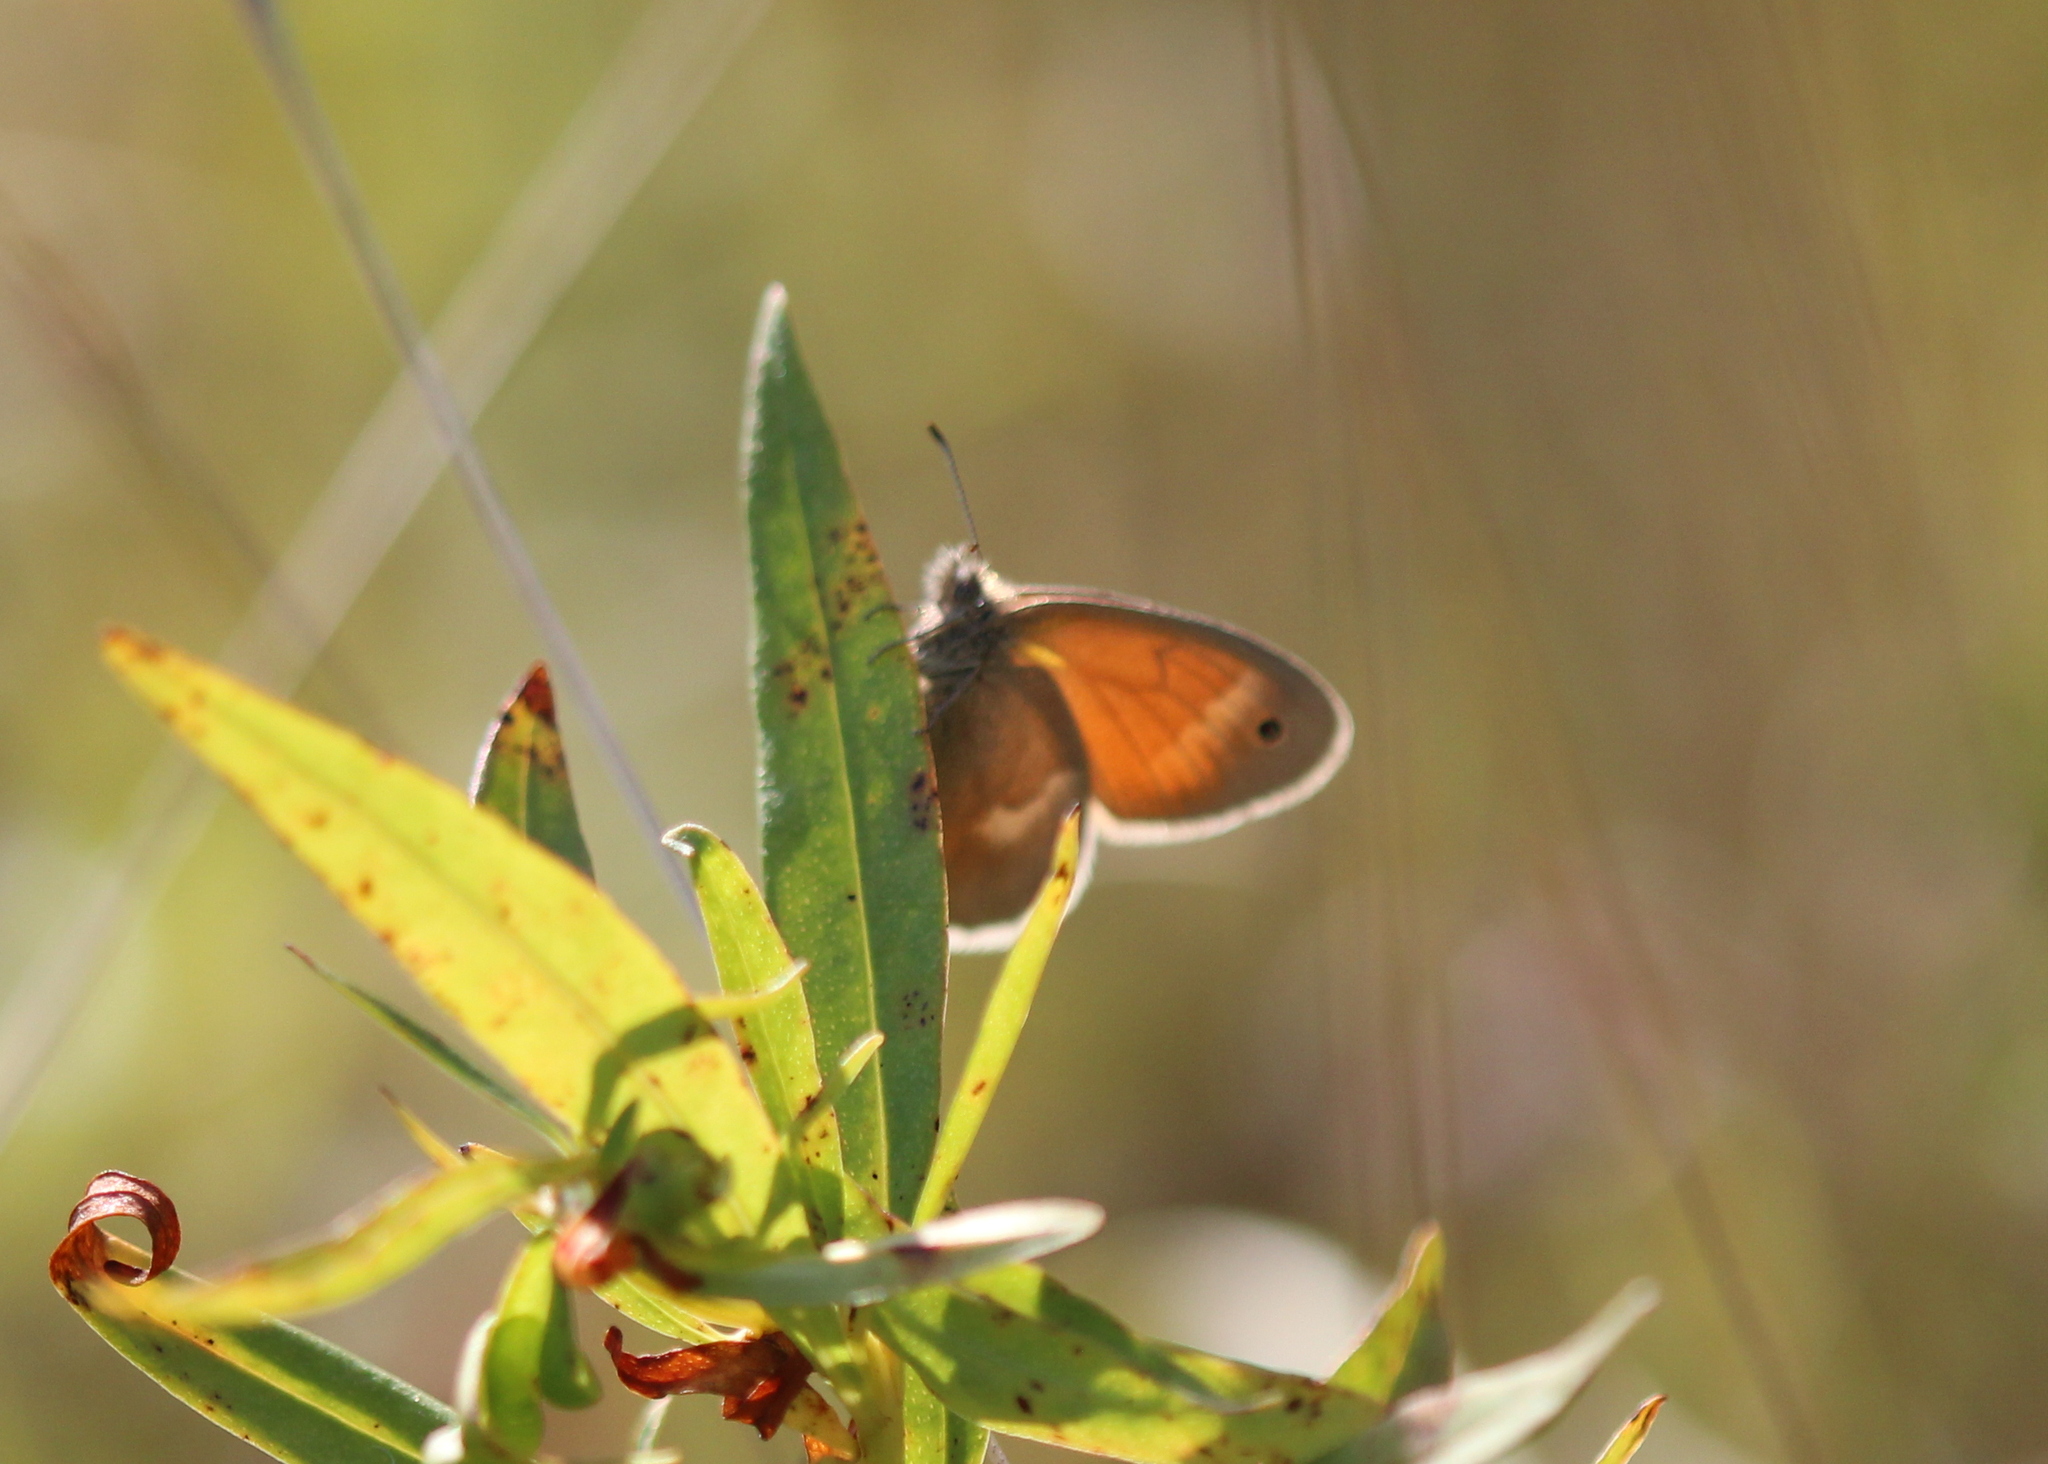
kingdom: Animalia
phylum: Arthropoda
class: Insecta
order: Lepidoptera
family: Nymphalidae
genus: Coenonympha
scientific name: Coenonympha california
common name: Common ringlet
